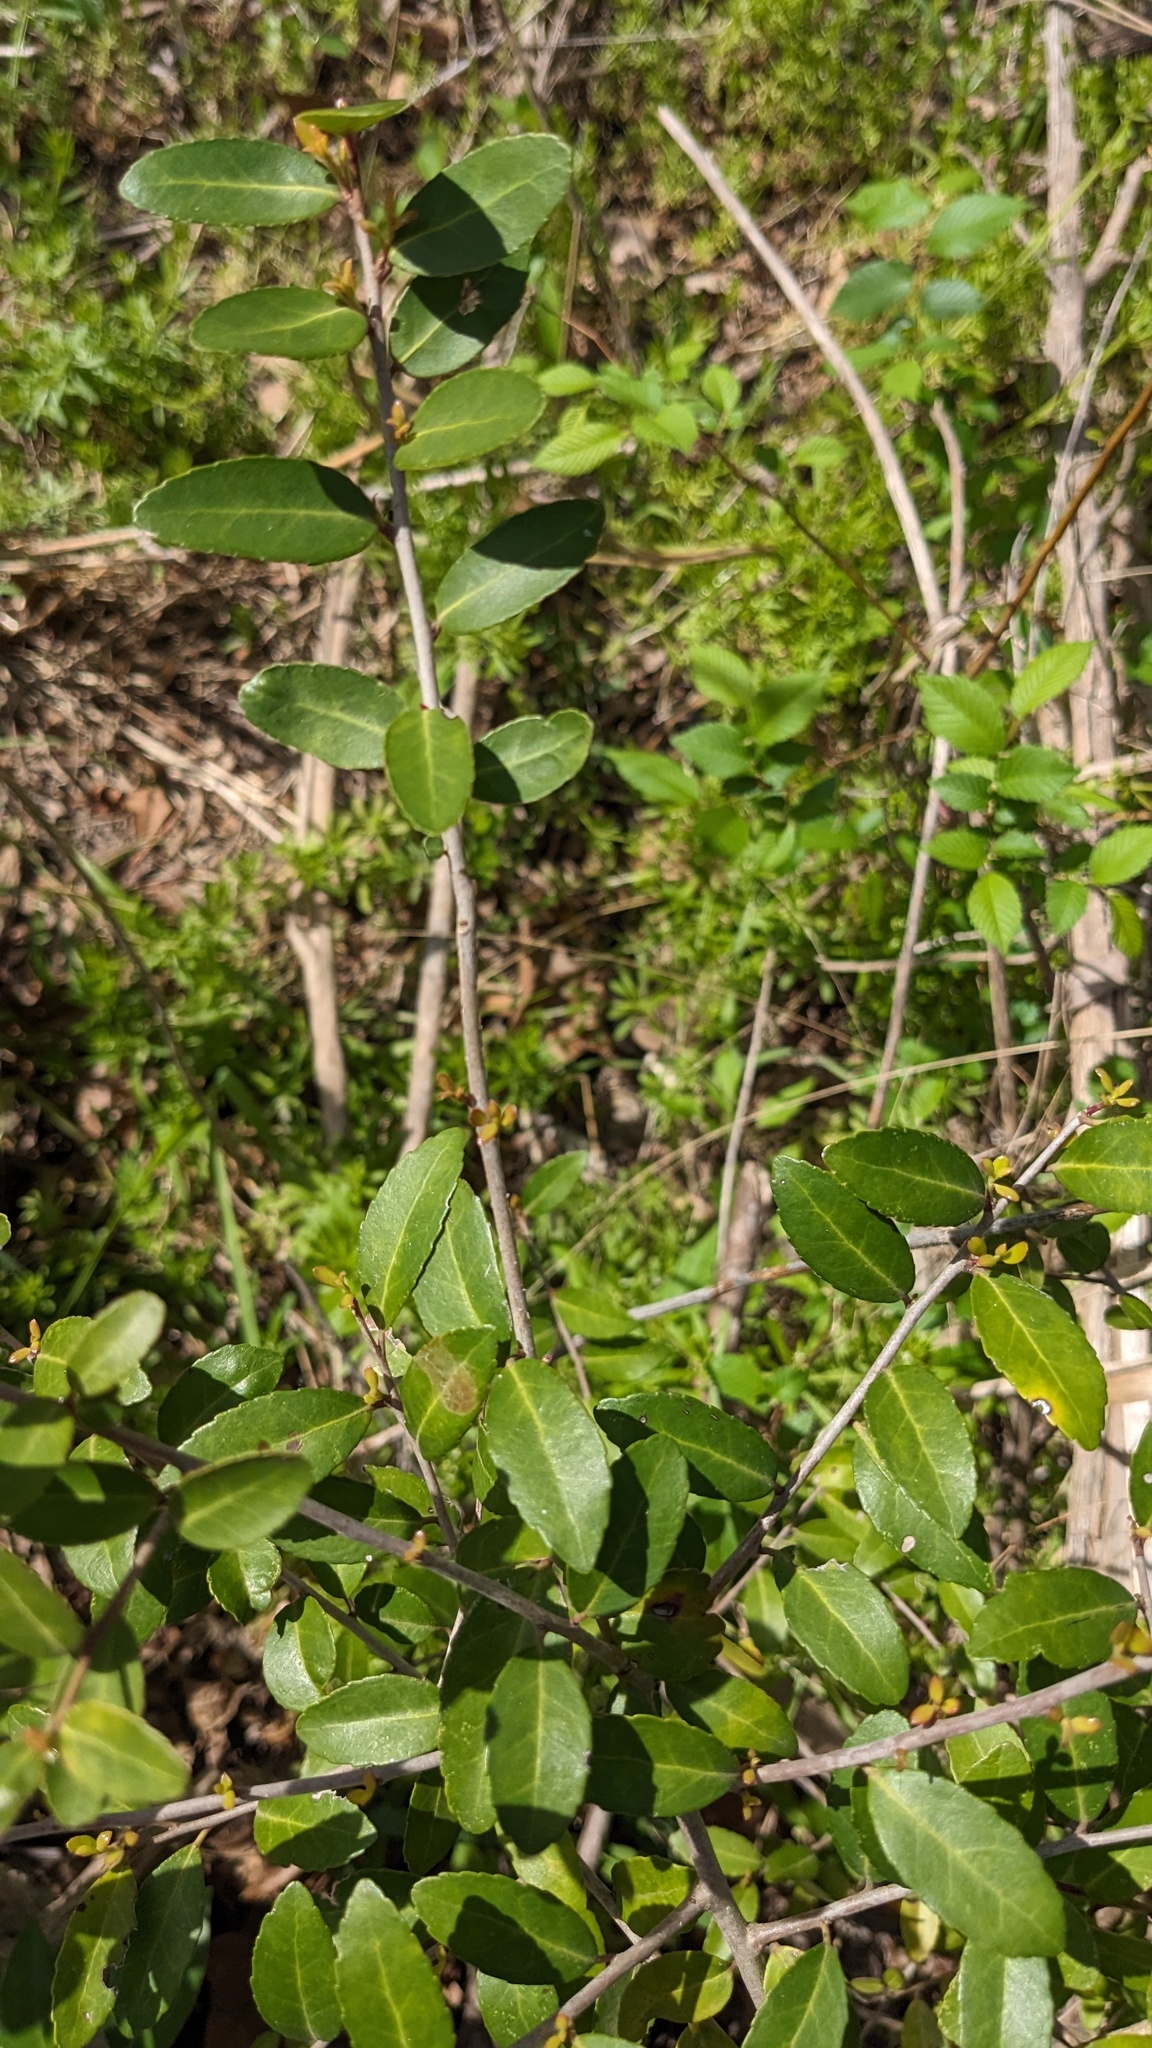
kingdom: Plantae
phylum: Tracheophyta
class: Magnoliopsida
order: Aquifoliales
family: Aquifoliaceae
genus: Ilex
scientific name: Ilex vomitoria
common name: Yaupon holly
